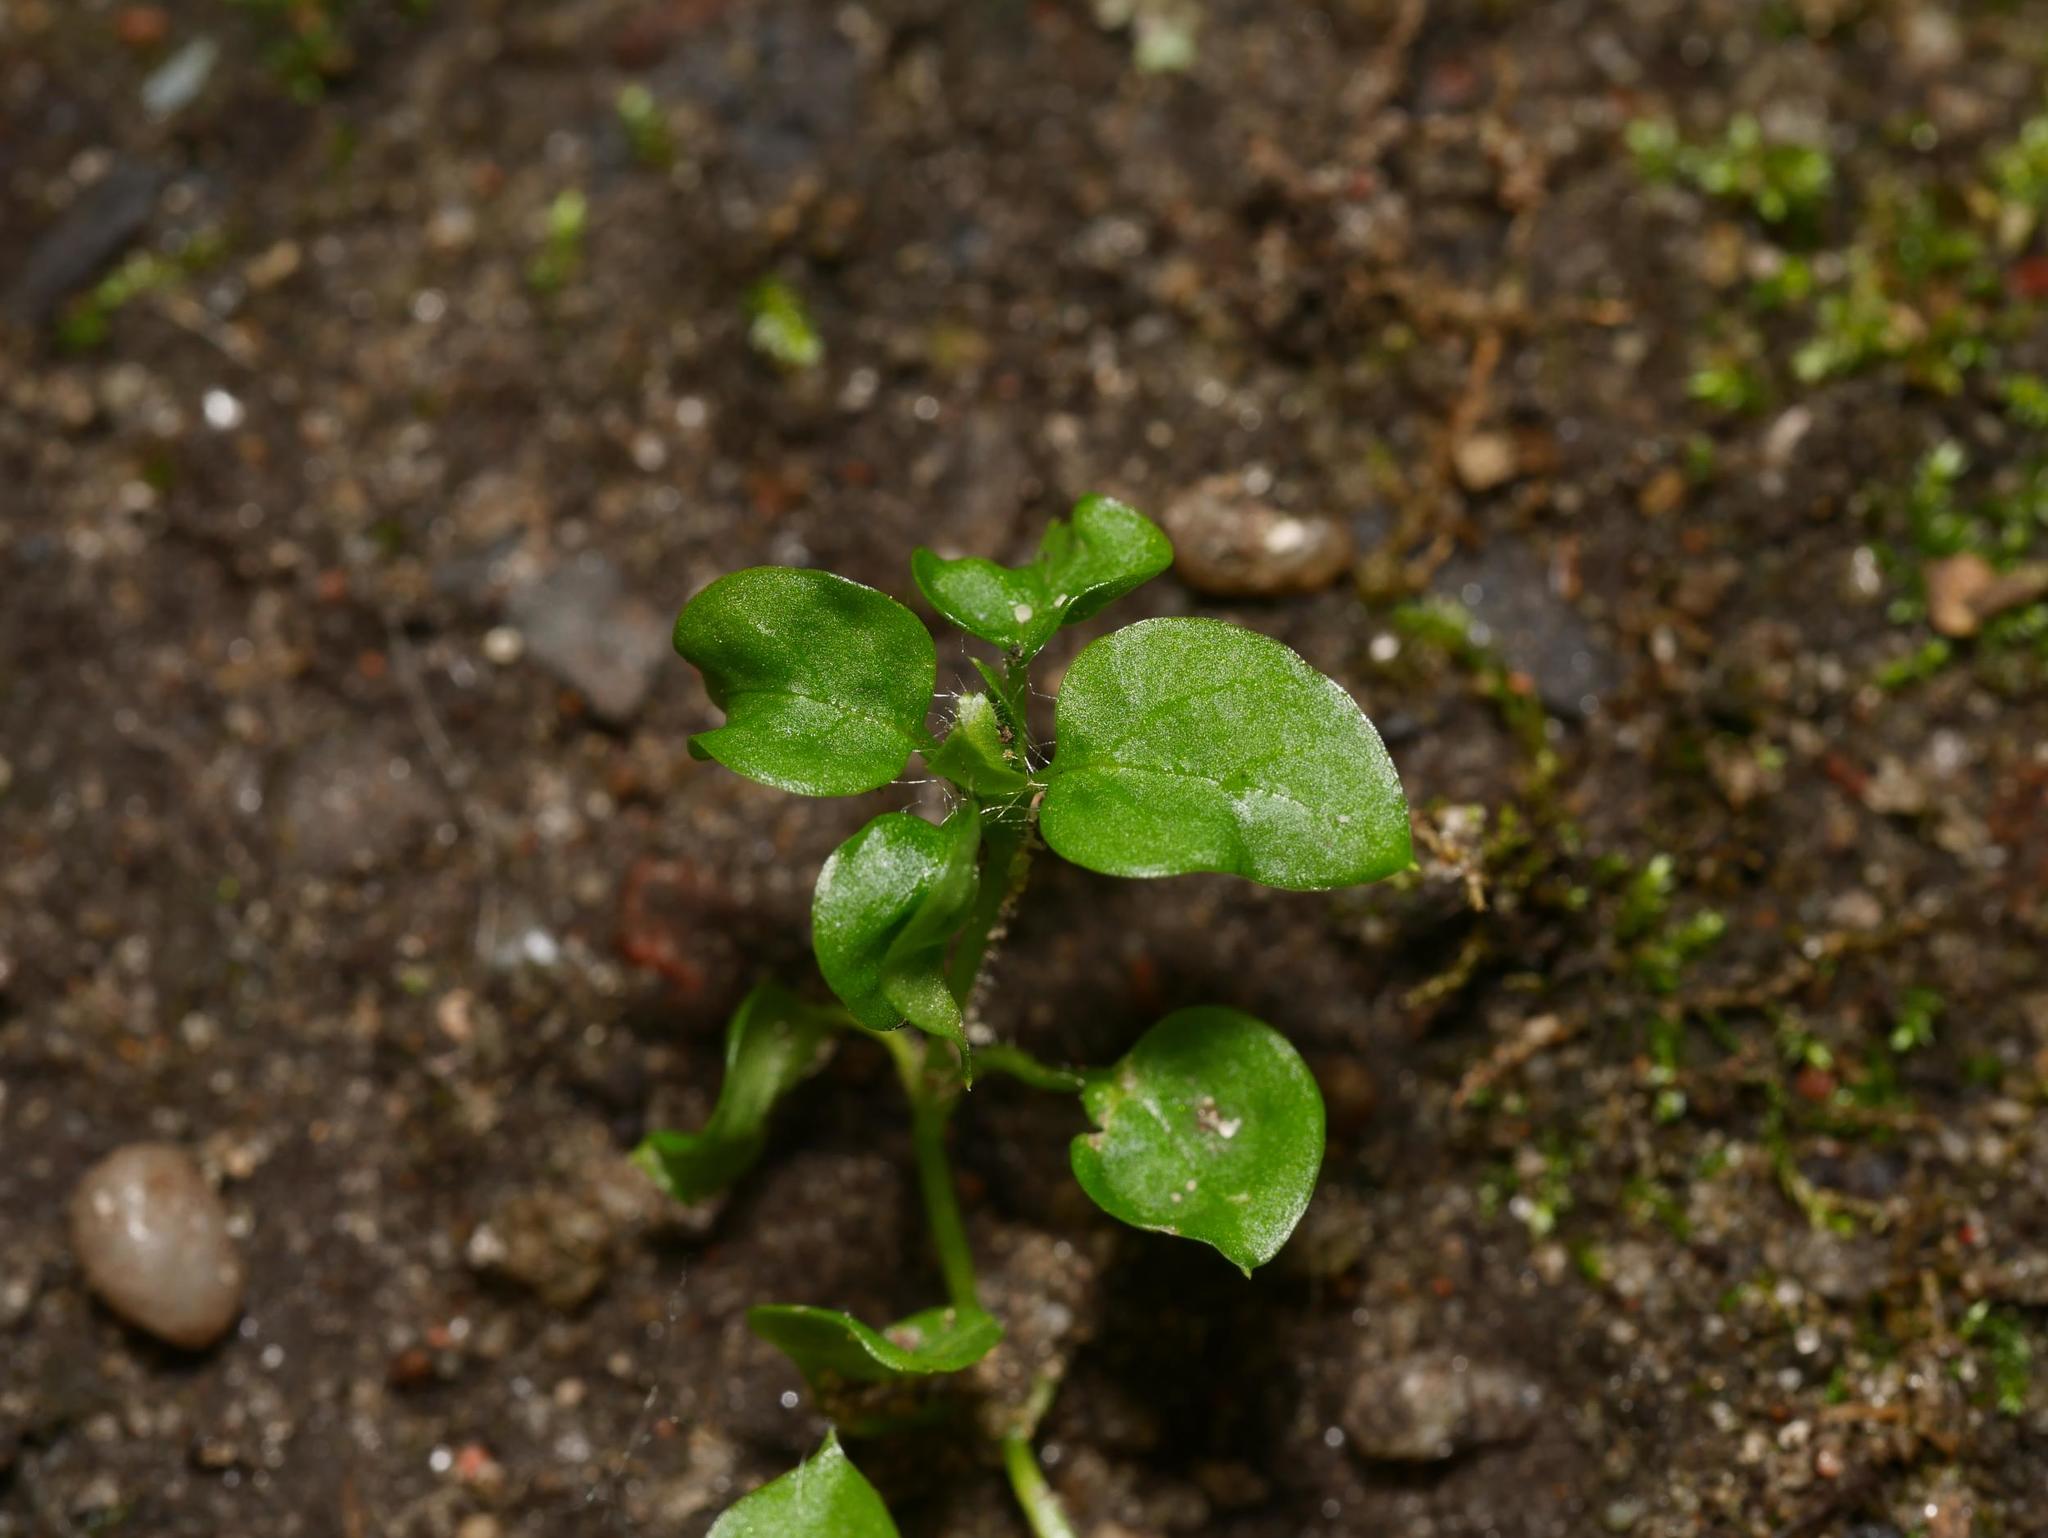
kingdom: Plantae
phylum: Tracheophyta
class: Magnoliopsida
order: Caryophyllales
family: Caryophyllaceae
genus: Stellaria
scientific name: Stellaria media
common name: Common chickweed
